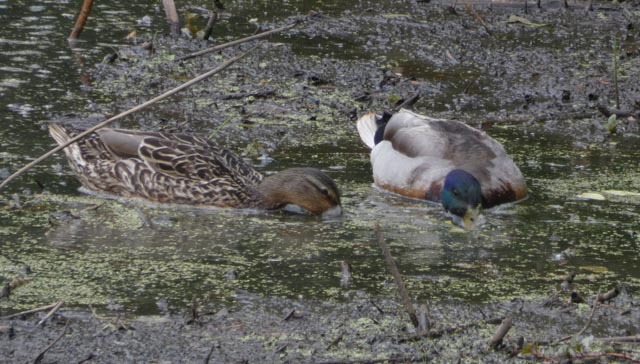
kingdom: Animalia
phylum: Chordata
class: Aves
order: Anseriformes
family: Anatidae
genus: Anas
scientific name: Anas platyrhynchos
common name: Mallard
